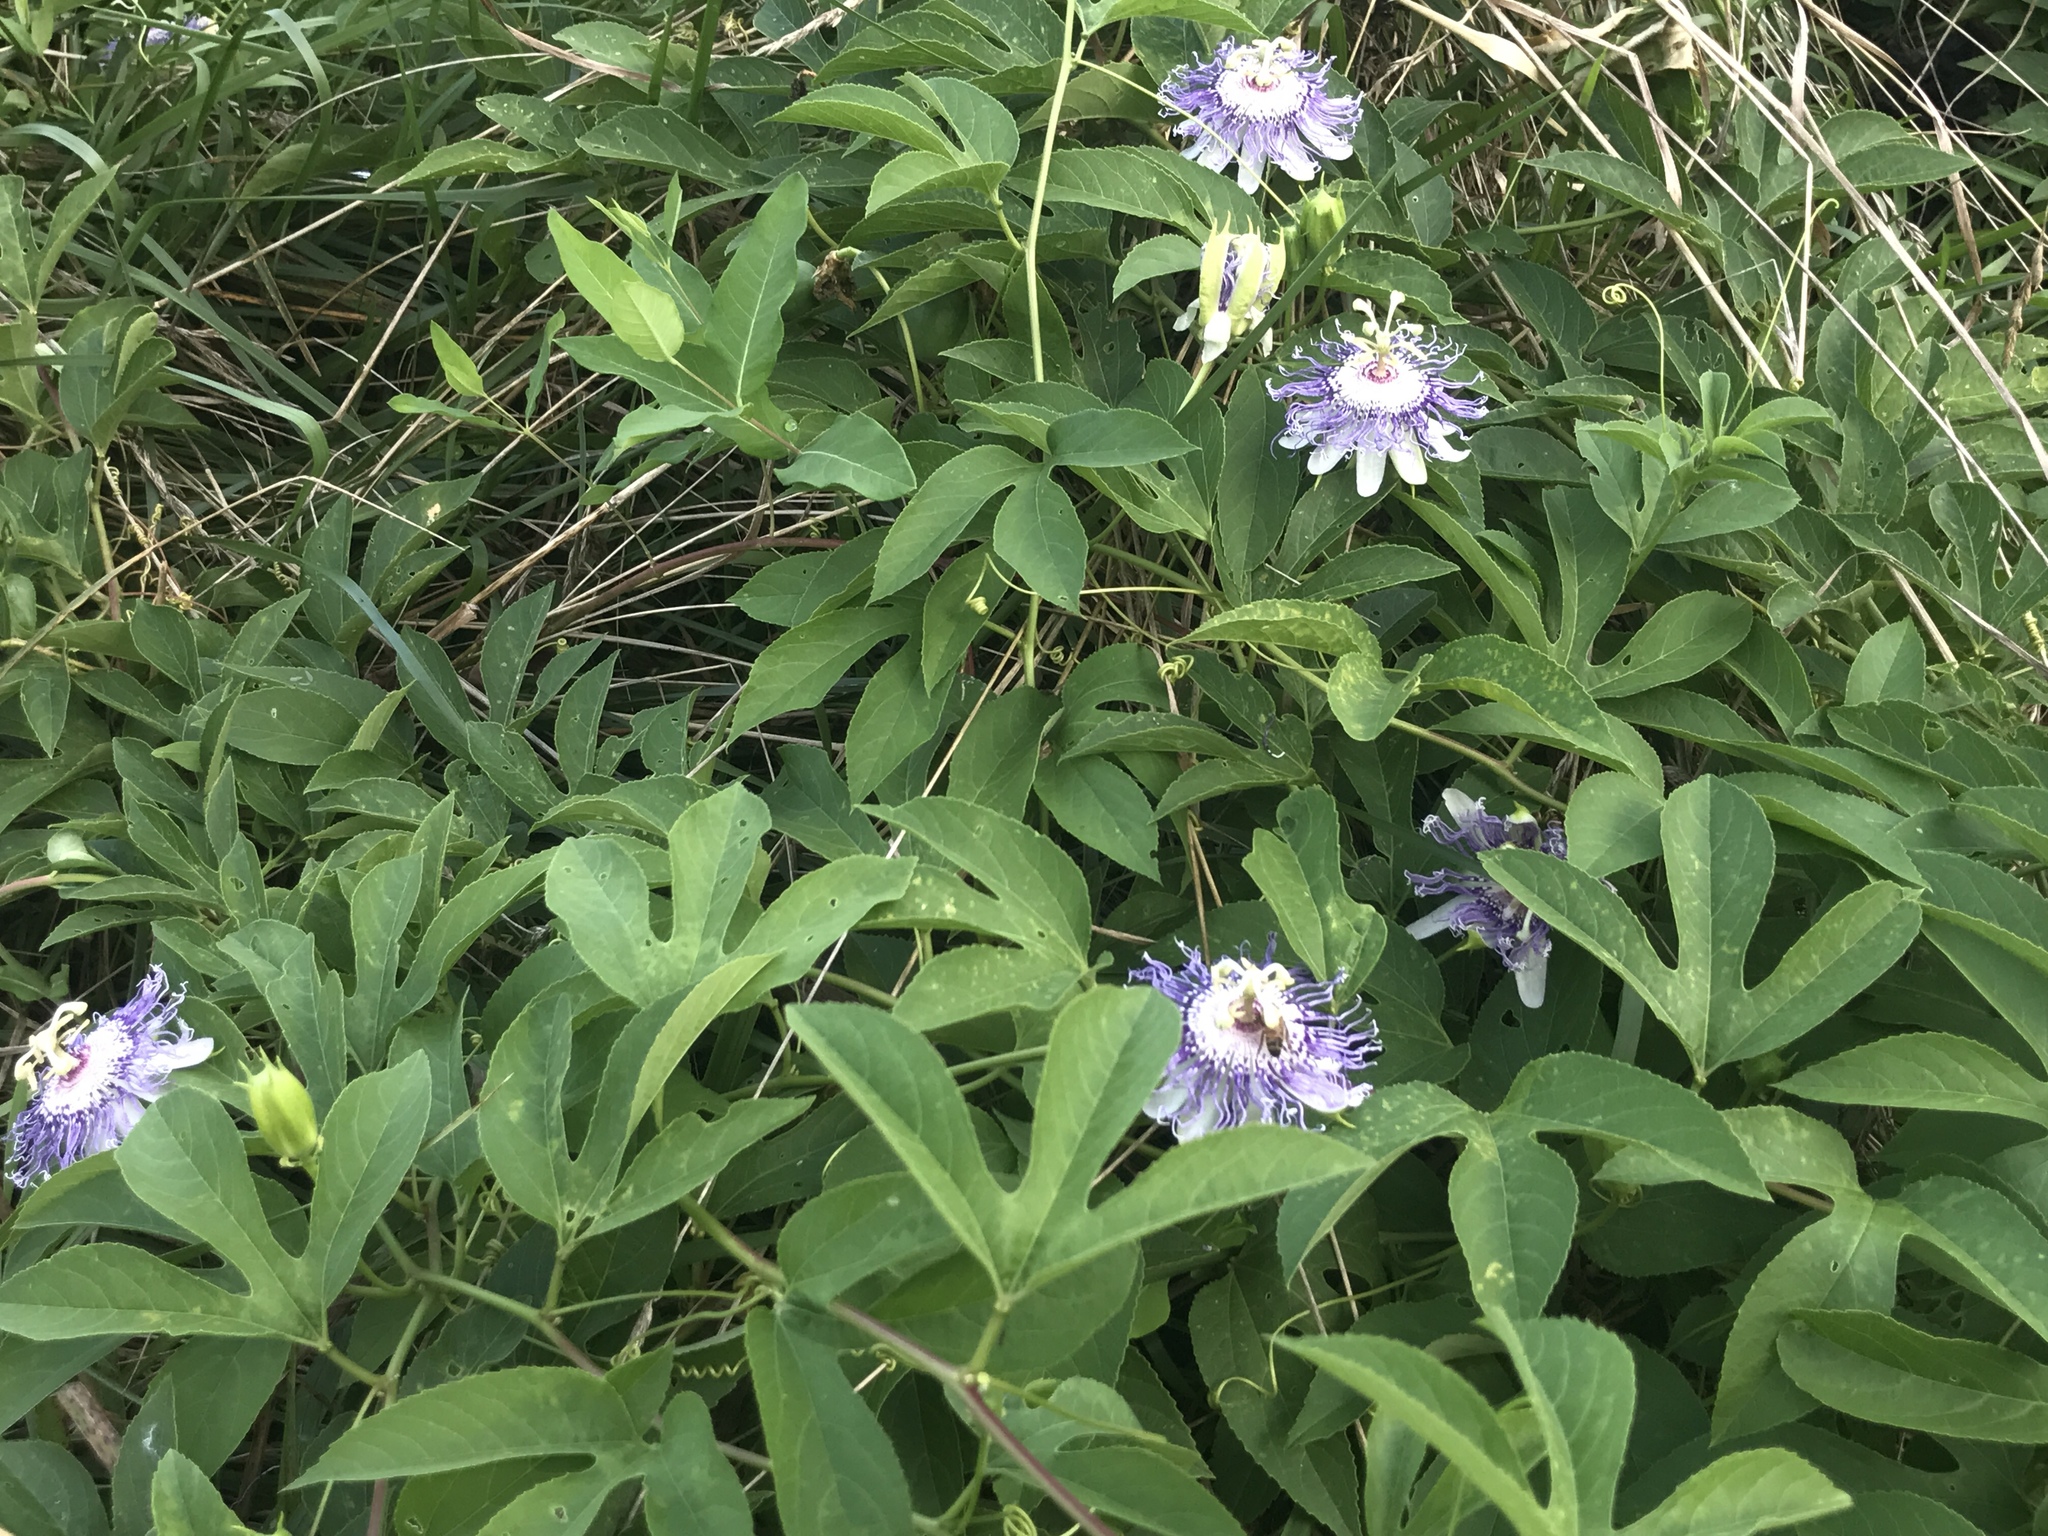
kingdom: Plantae
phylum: Tracheophyta
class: Magnoliopsida
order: Malpighiales
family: Passifloraceae
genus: Passiflora
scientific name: Passiflora incarnata
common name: Apricot-vine
